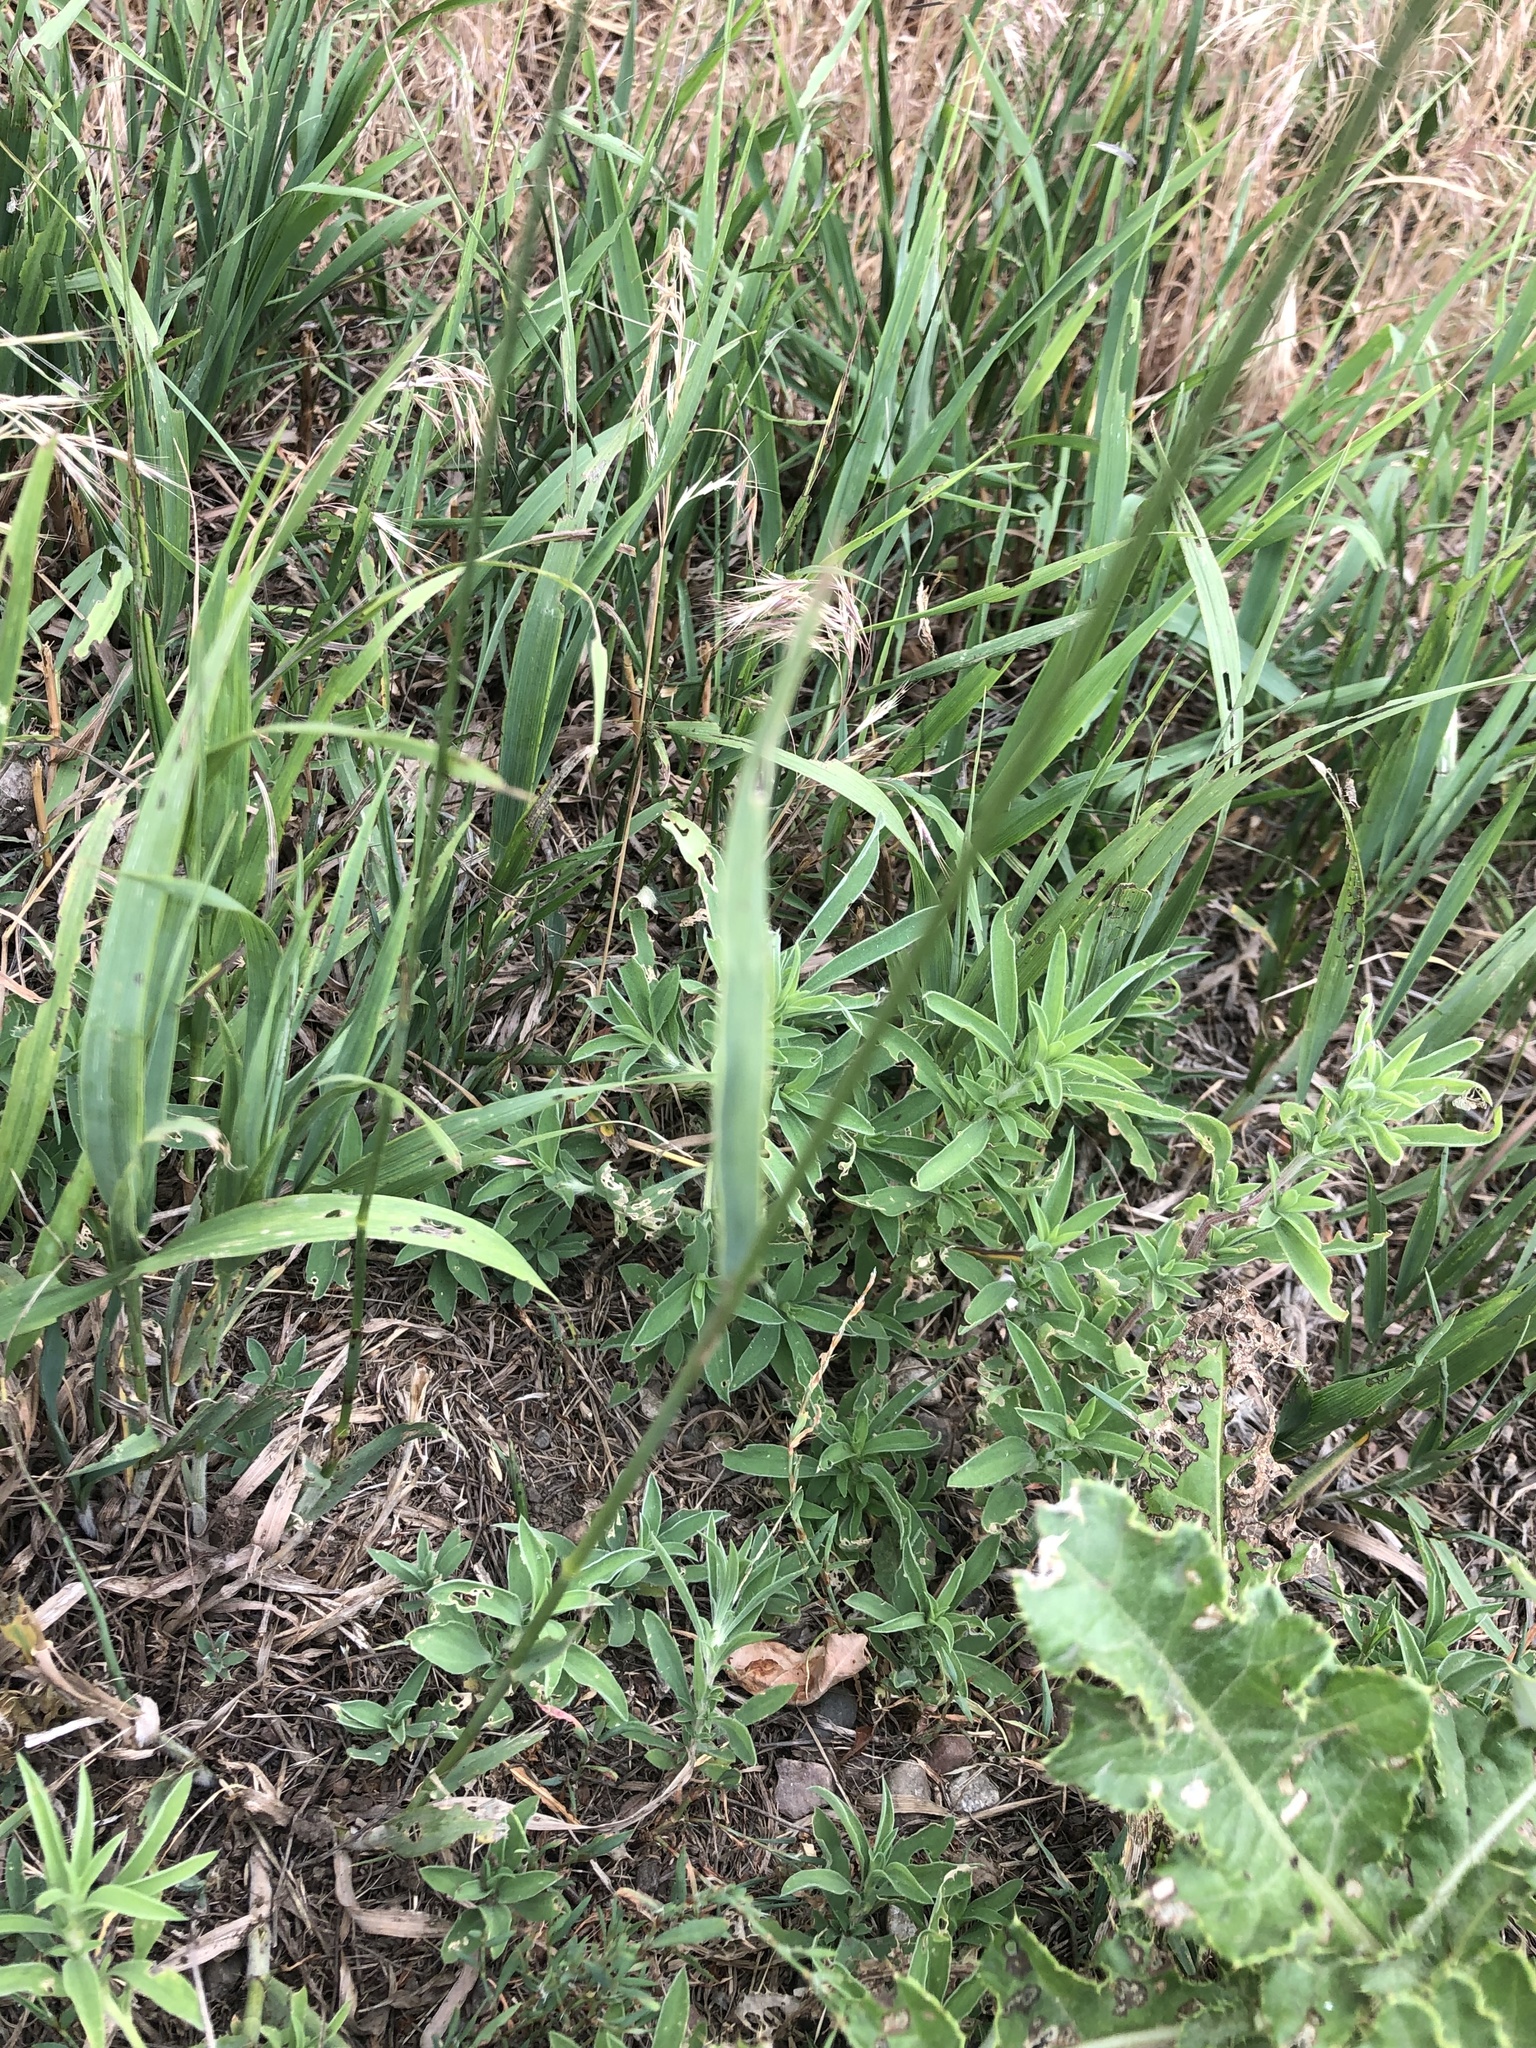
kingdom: Plantae
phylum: Tracheophyta
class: Liliopsida
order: Poales
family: Poaceae
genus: Bromus
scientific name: Bromus inermis
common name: Smooth brome
